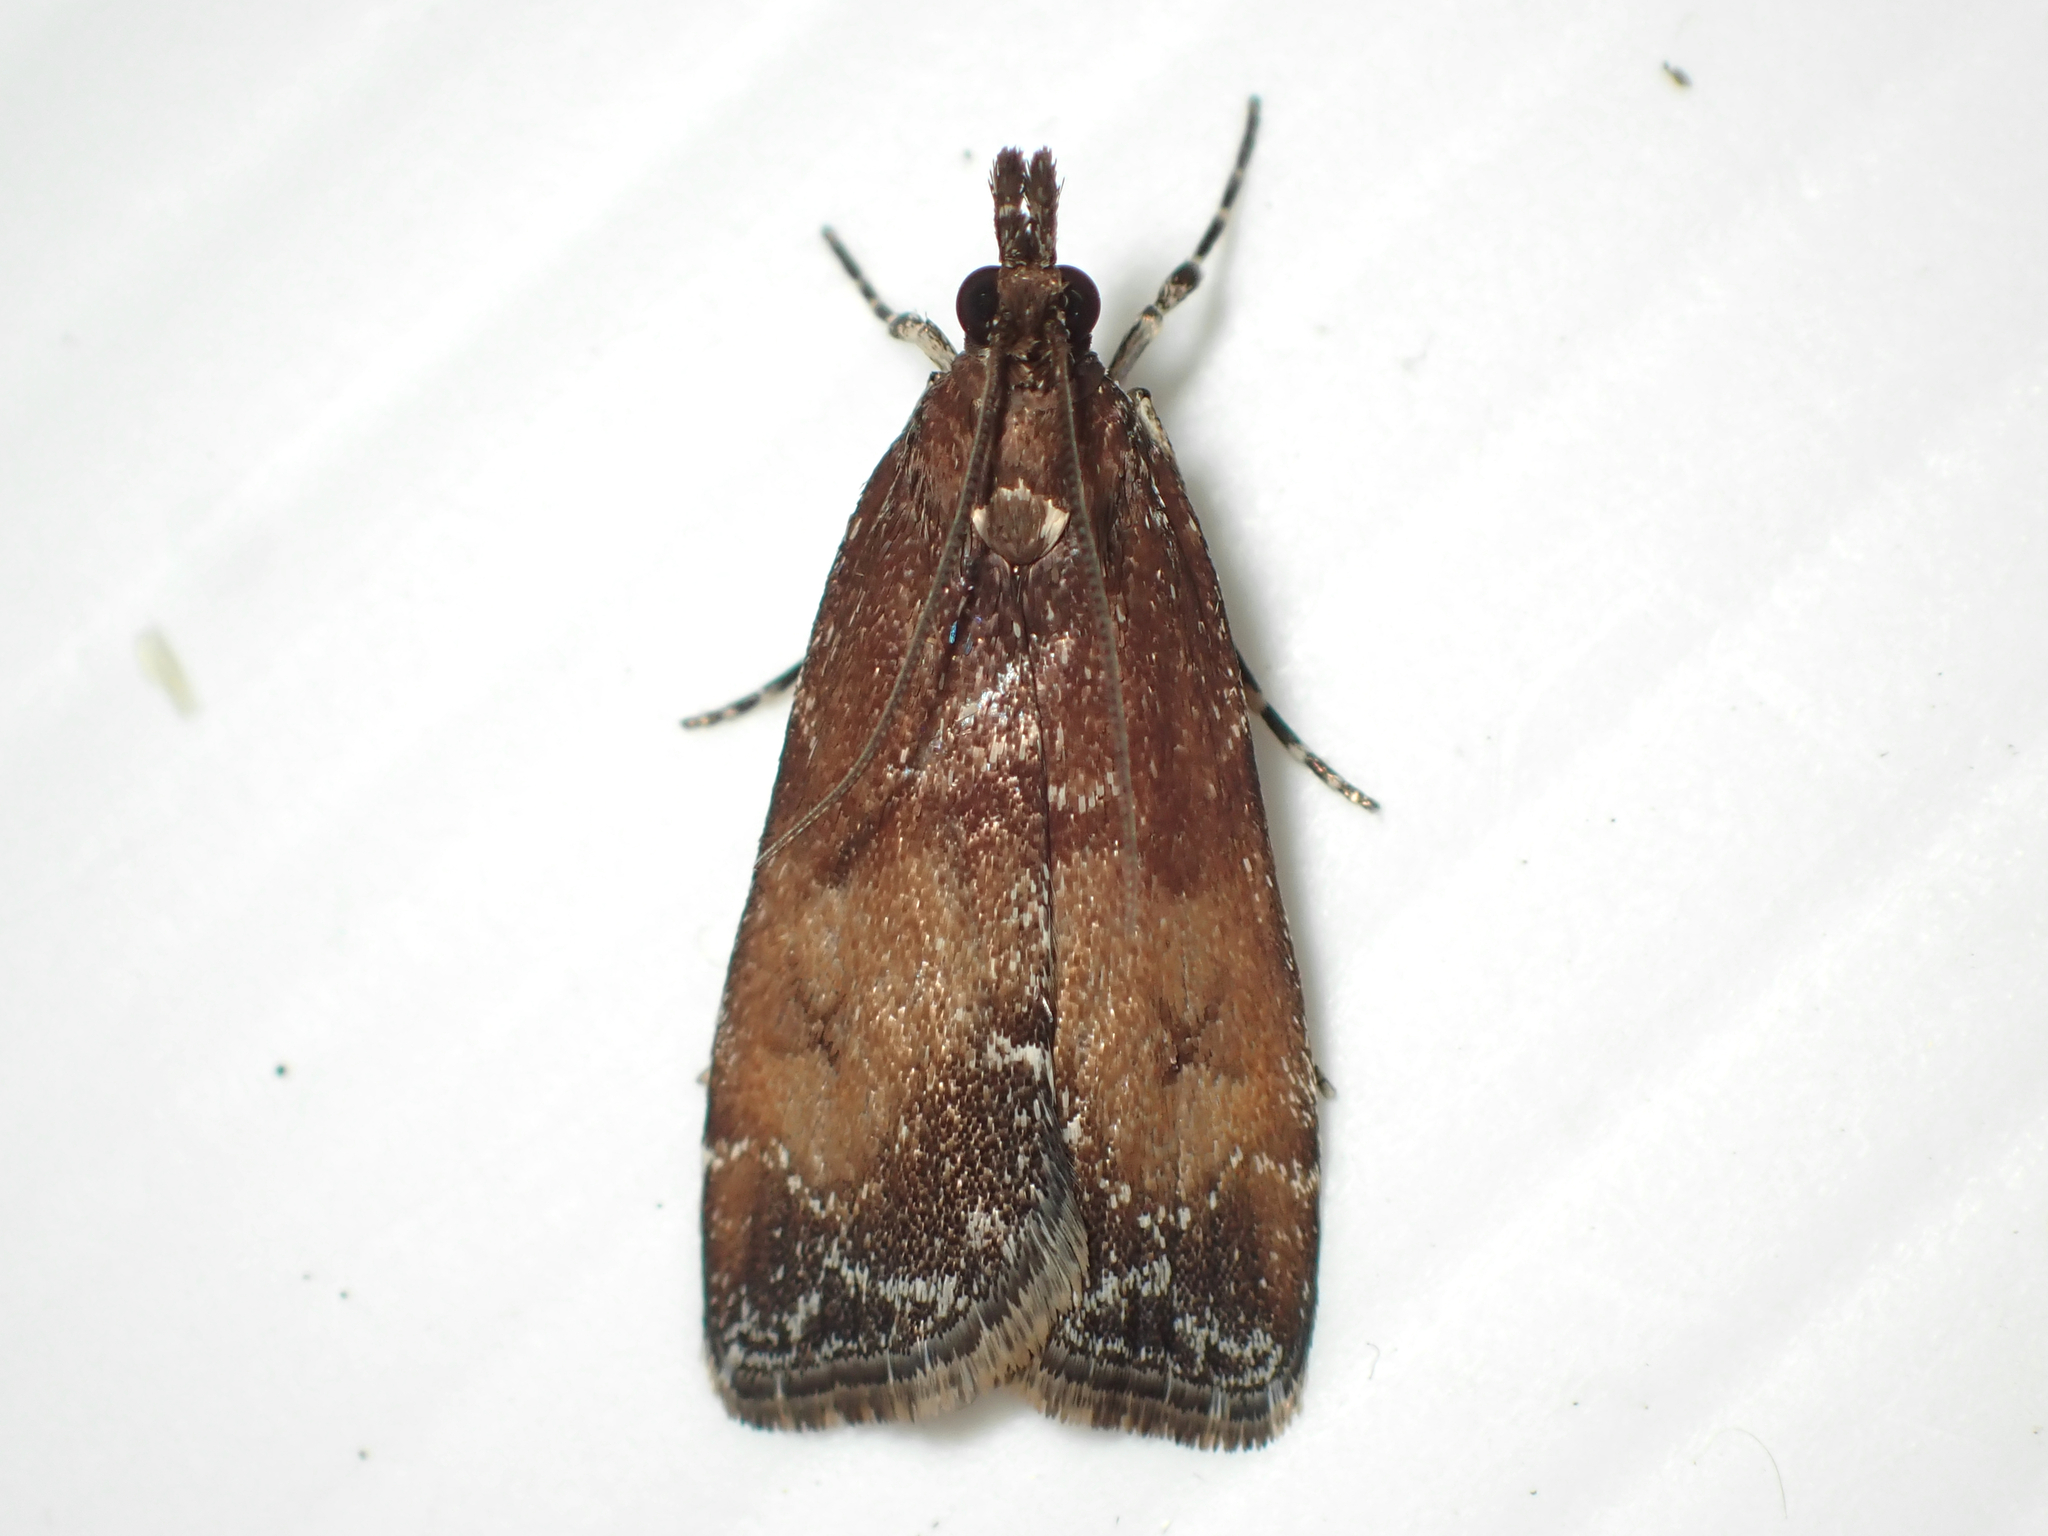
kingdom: Animalia
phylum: Arthropoda
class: Insecta
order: Lepidoptera
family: Crambidae
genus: Eudonia
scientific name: Eudonia asterisca
